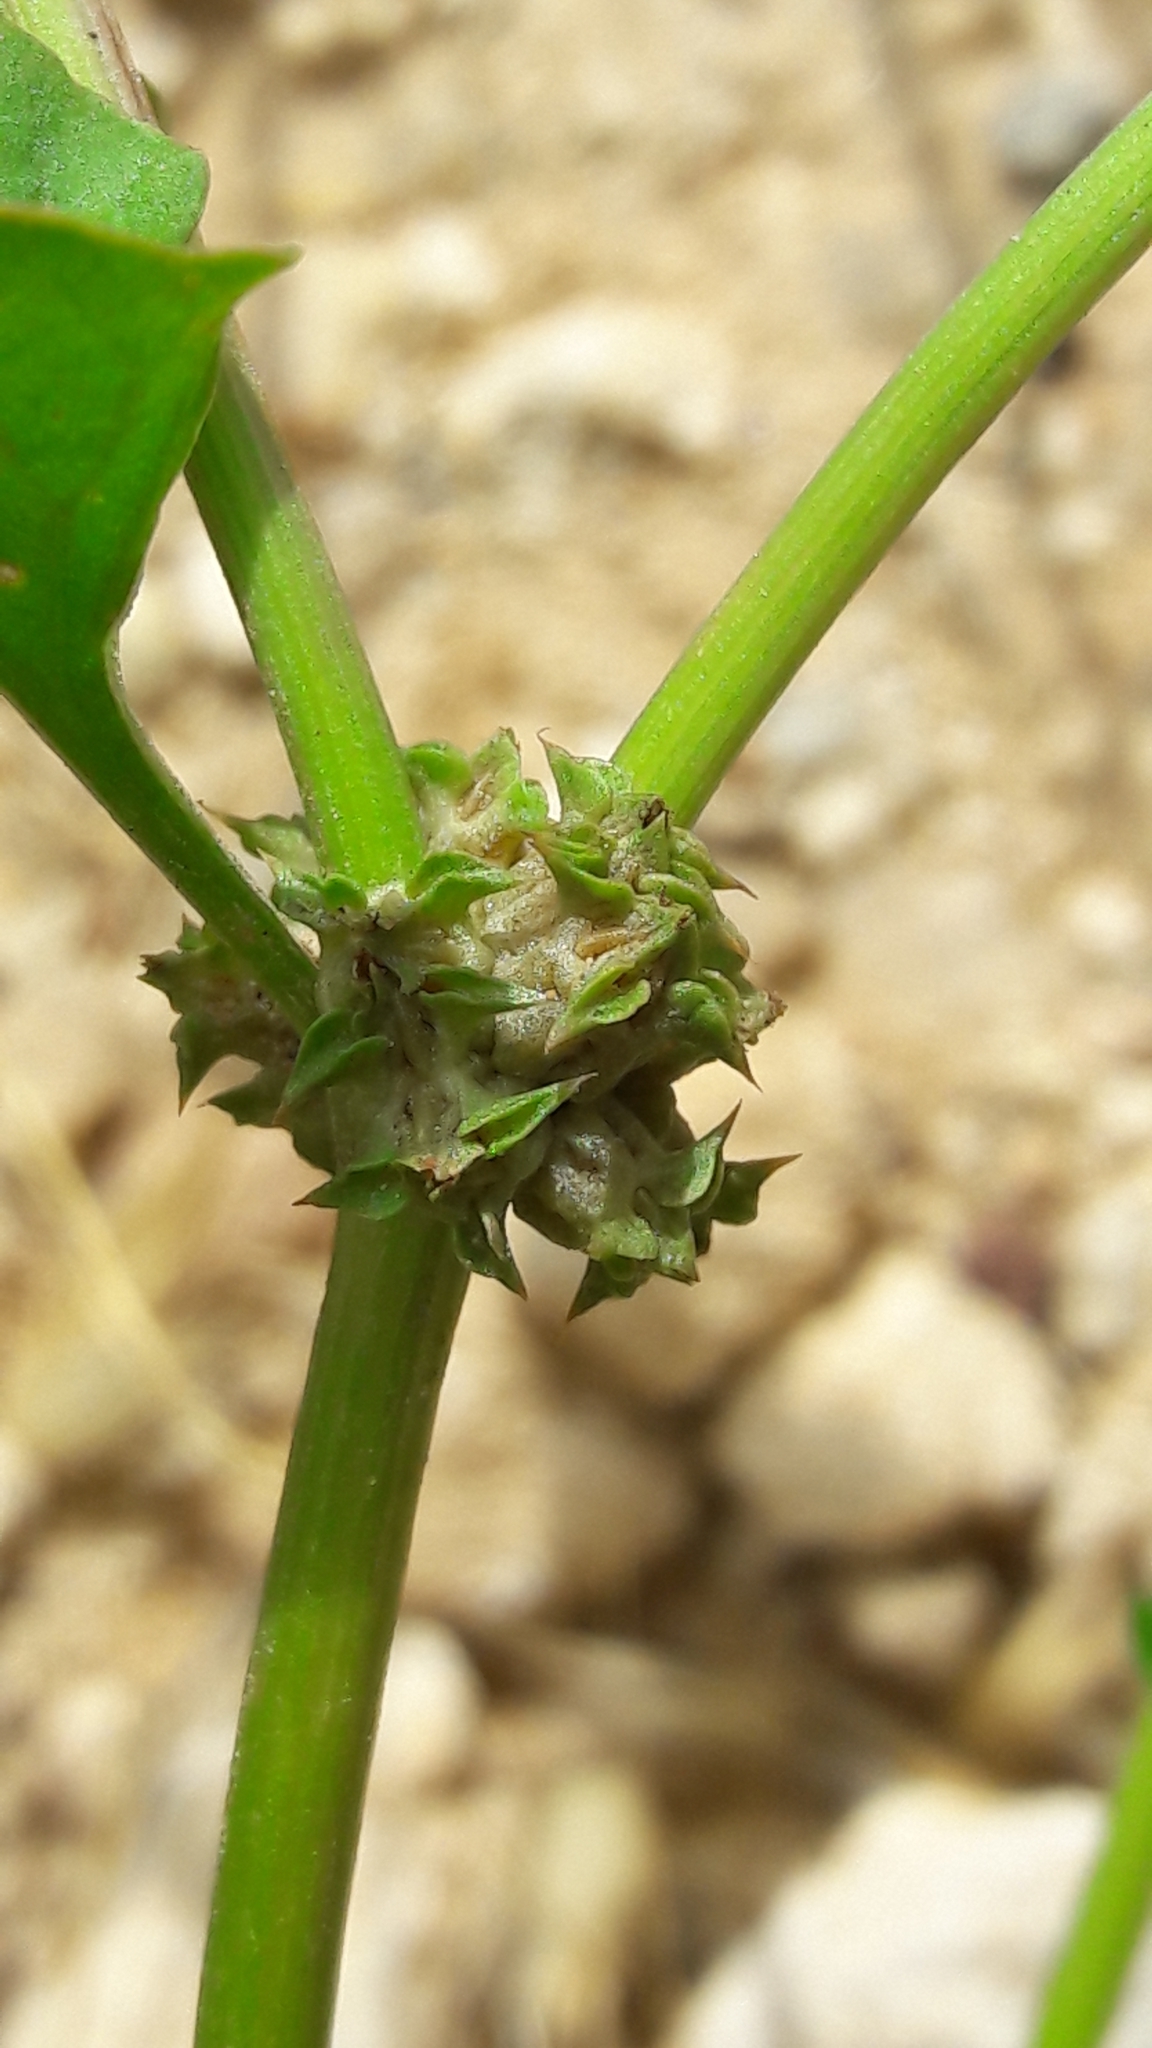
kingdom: Plantae
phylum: Tracheophyta
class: Magnoliopsida
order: Caryophyllales
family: Polygonaceae
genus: Rumex
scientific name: Rumex spinosus
